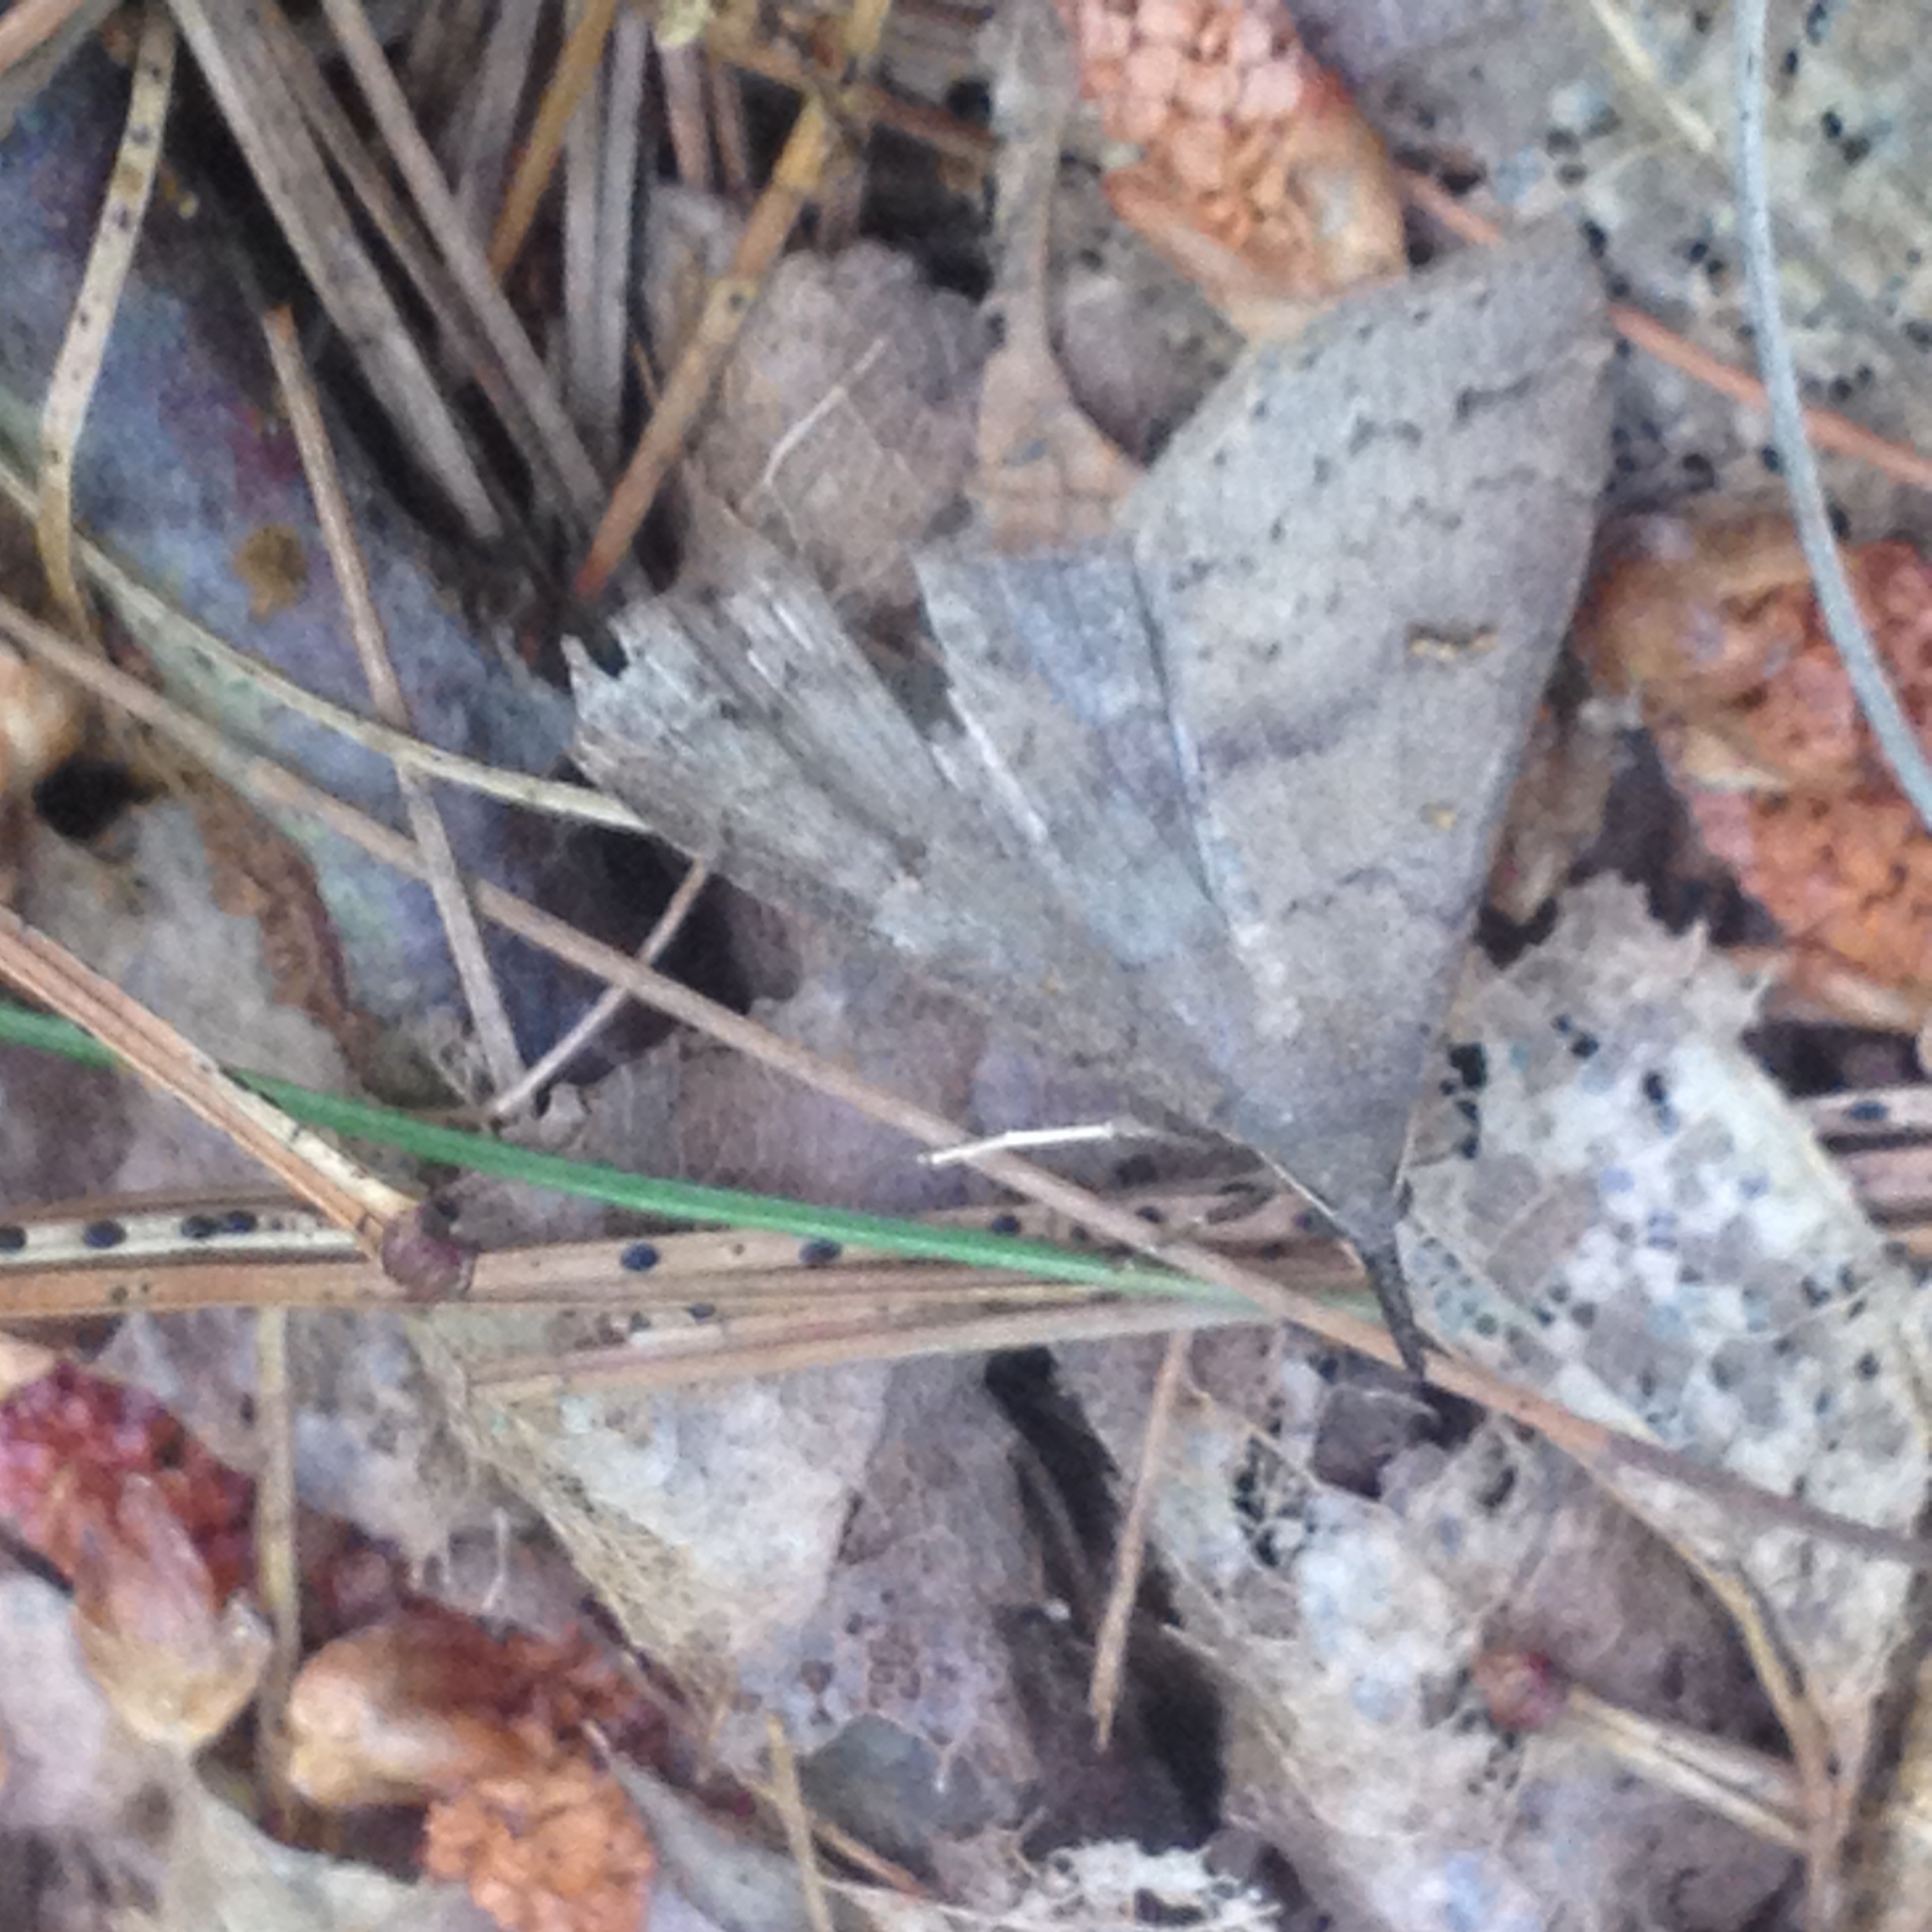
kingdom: Animalia
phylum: Arthropoda
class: Insecta
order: Lepidoptera
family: Erebidae
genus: Renia
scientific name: Renia adspergillus
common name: Speckled renia moth
